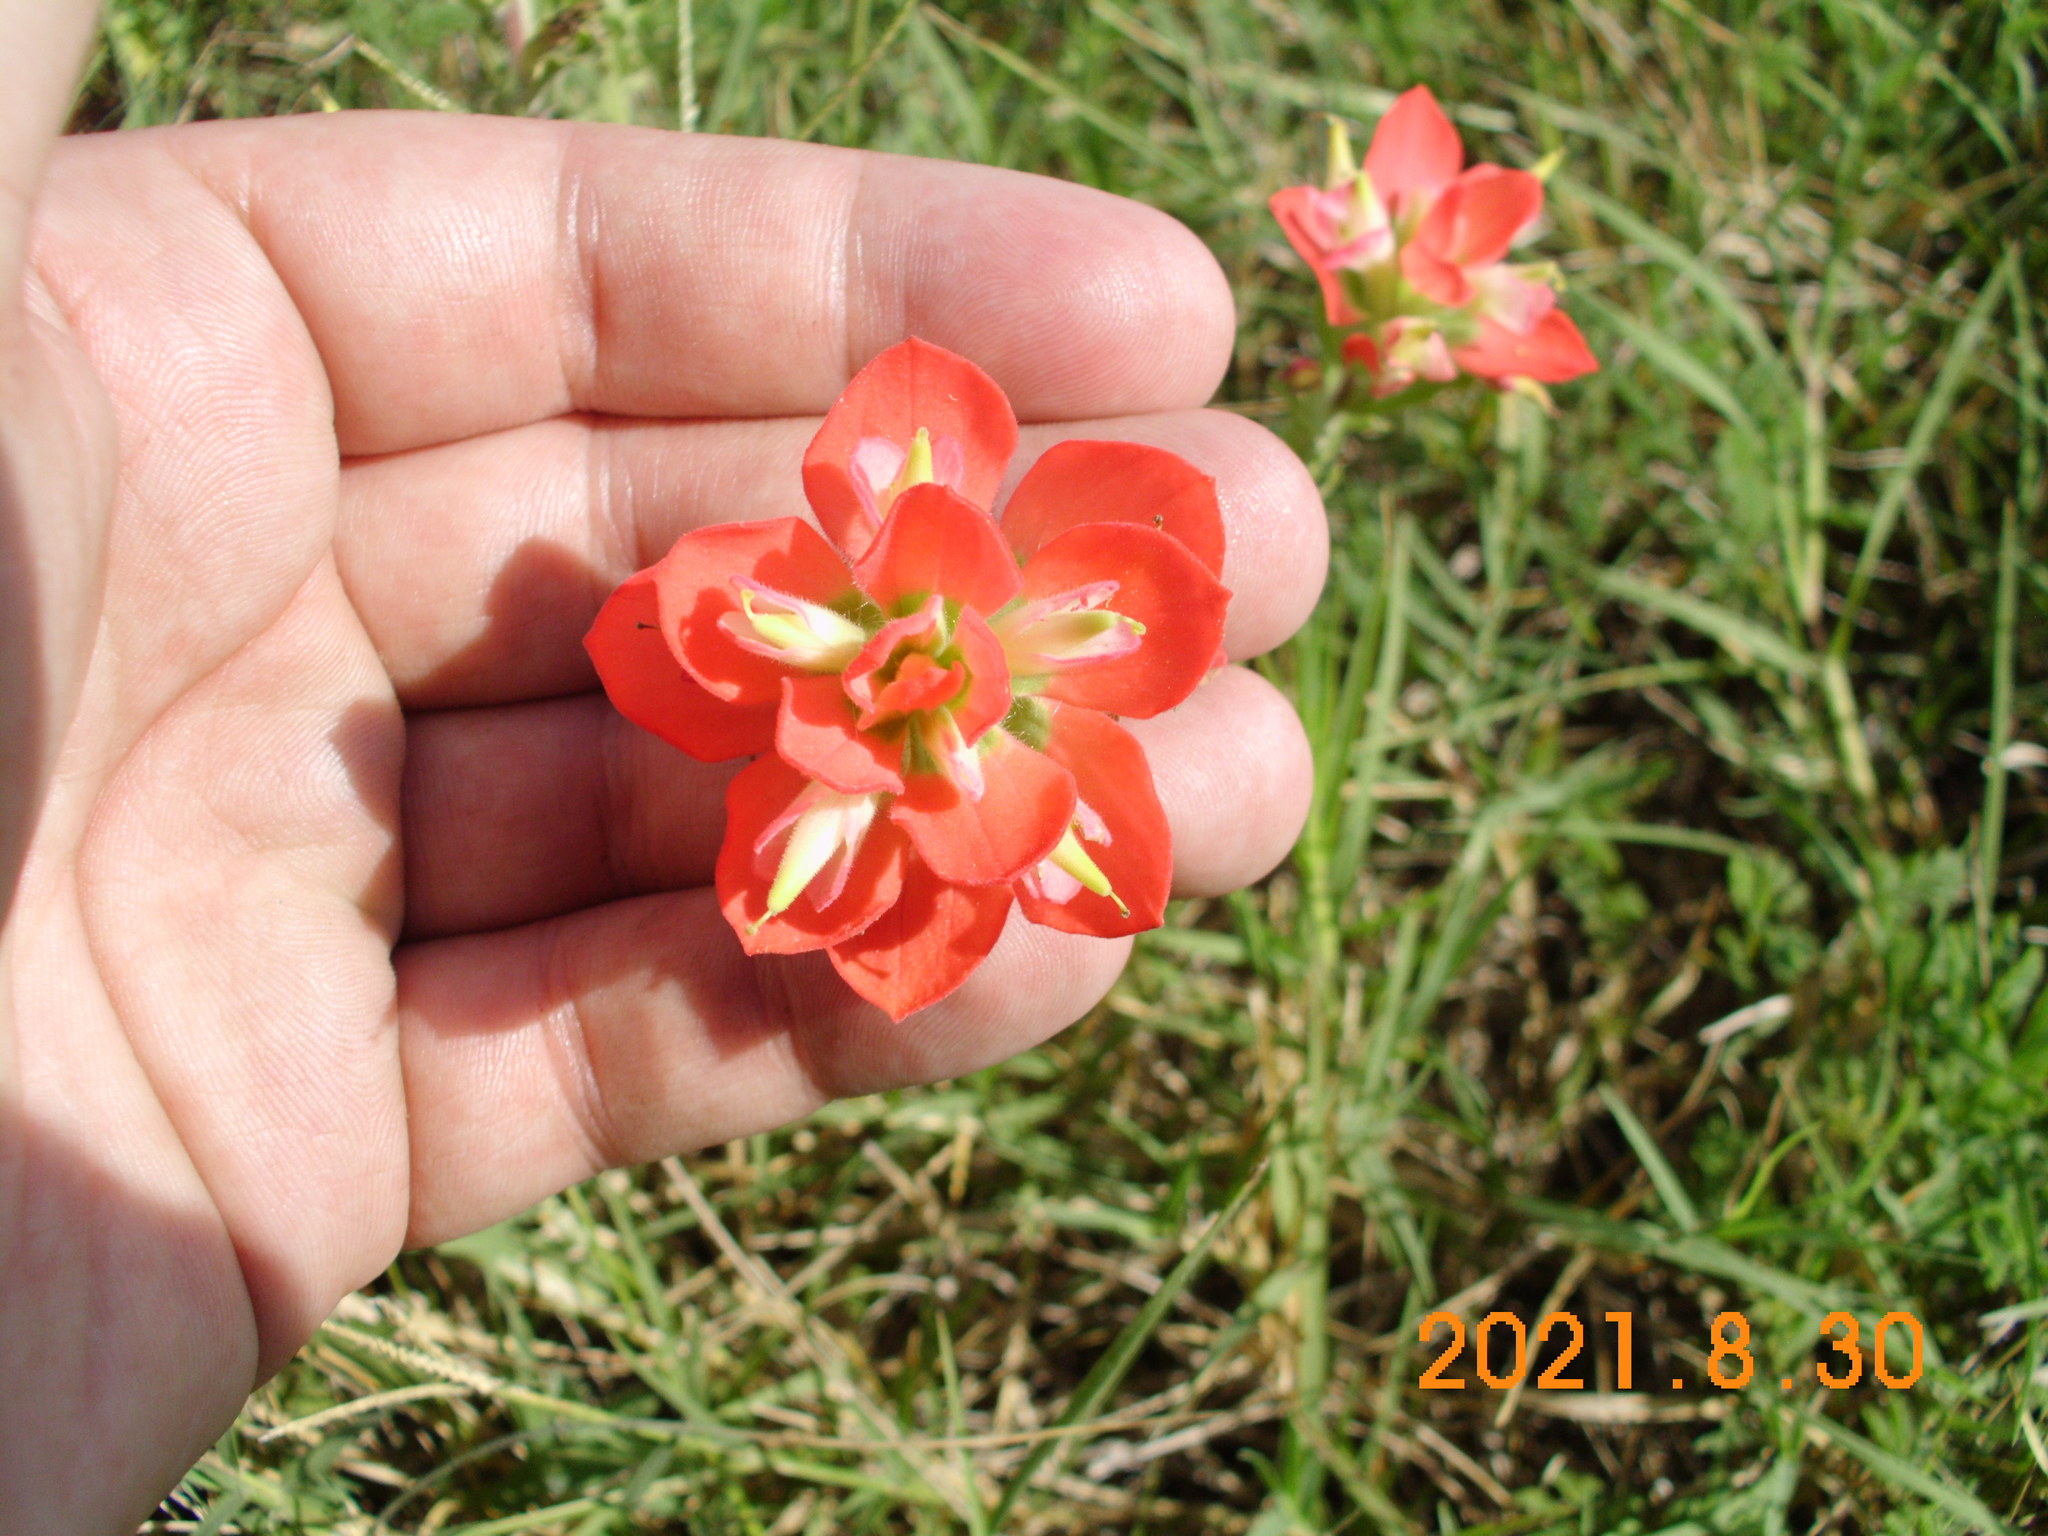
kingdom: Plantae
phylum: Tracheophyta
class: Magnoliopsida
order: Lamiales
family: Orobanchaceae
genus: Castilleja
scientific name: Castilleja indivisa
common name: Texas paintbrush
